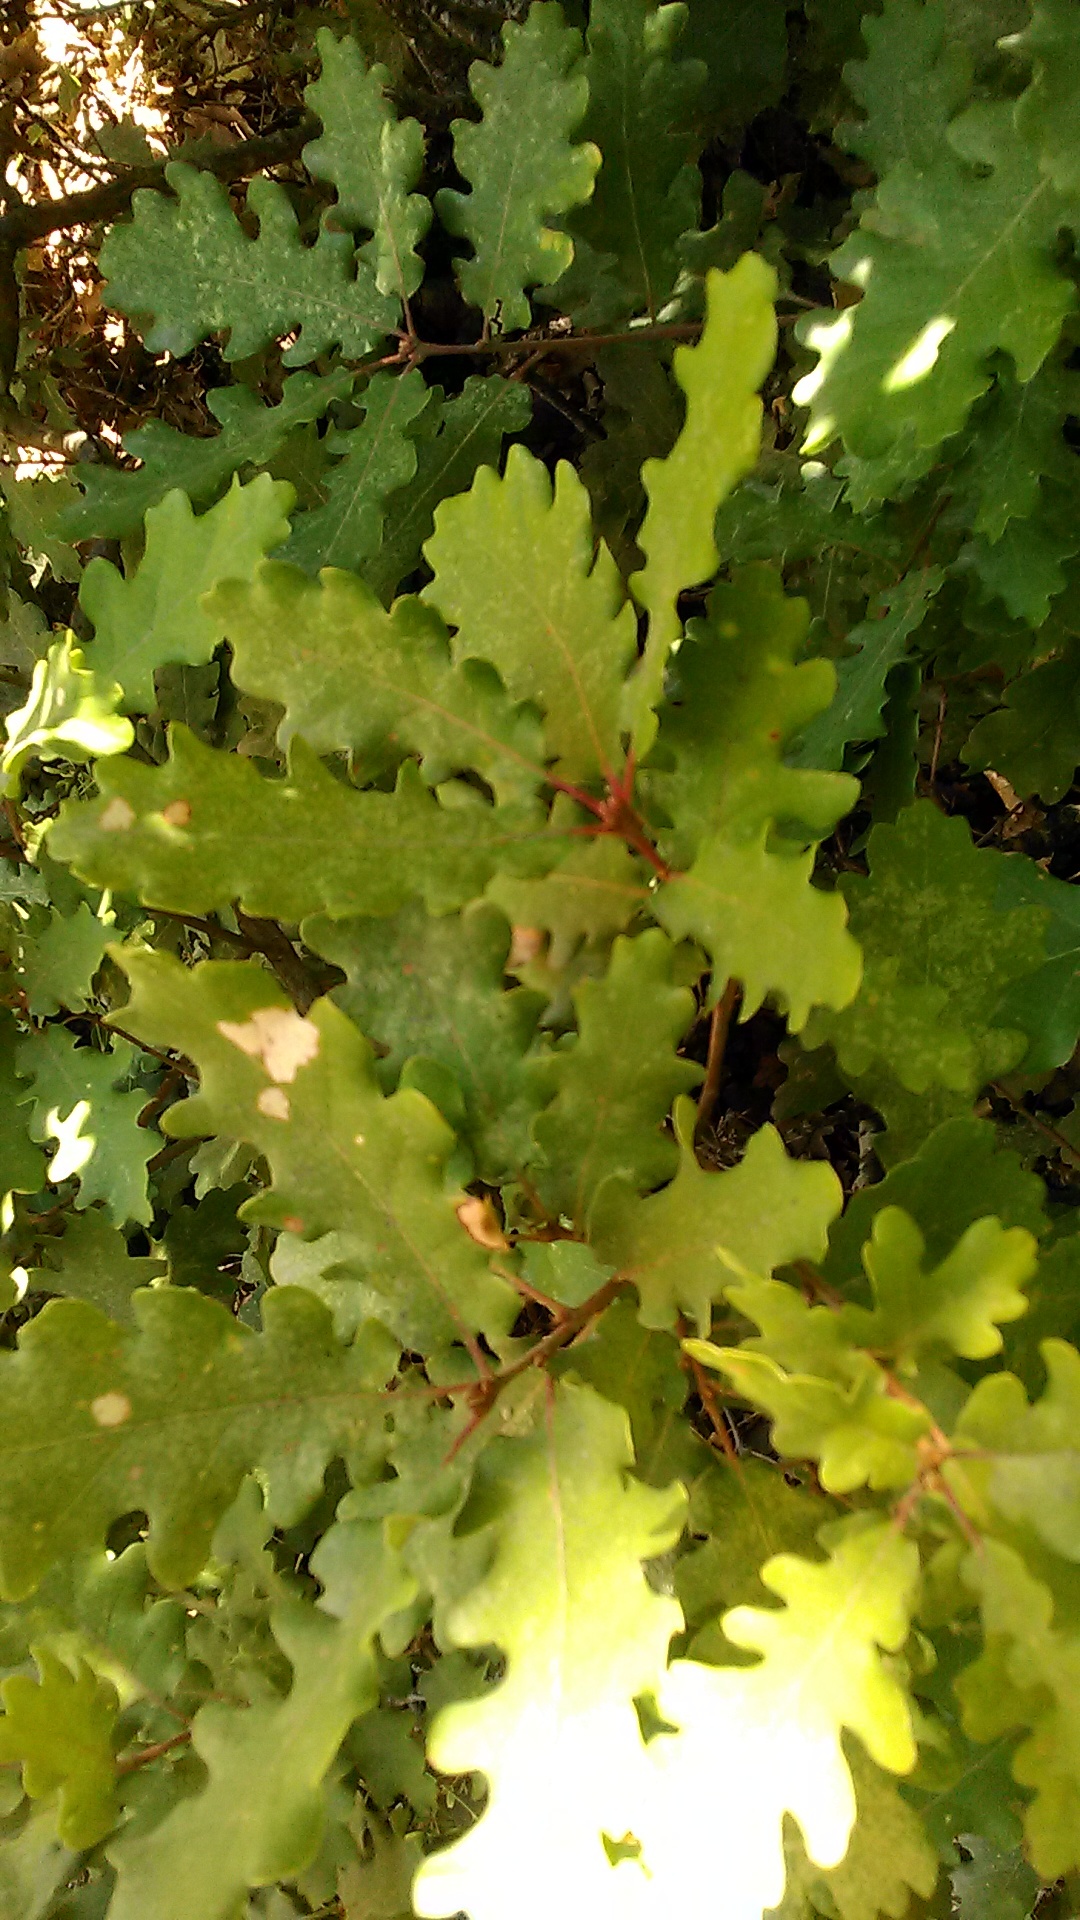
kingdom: Plantae
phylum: Tracheophyta
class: Magnoliopsida
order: Fagales
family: Fagaceae
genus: Quercus
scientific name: Quercus pubescens
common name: Downy oak
